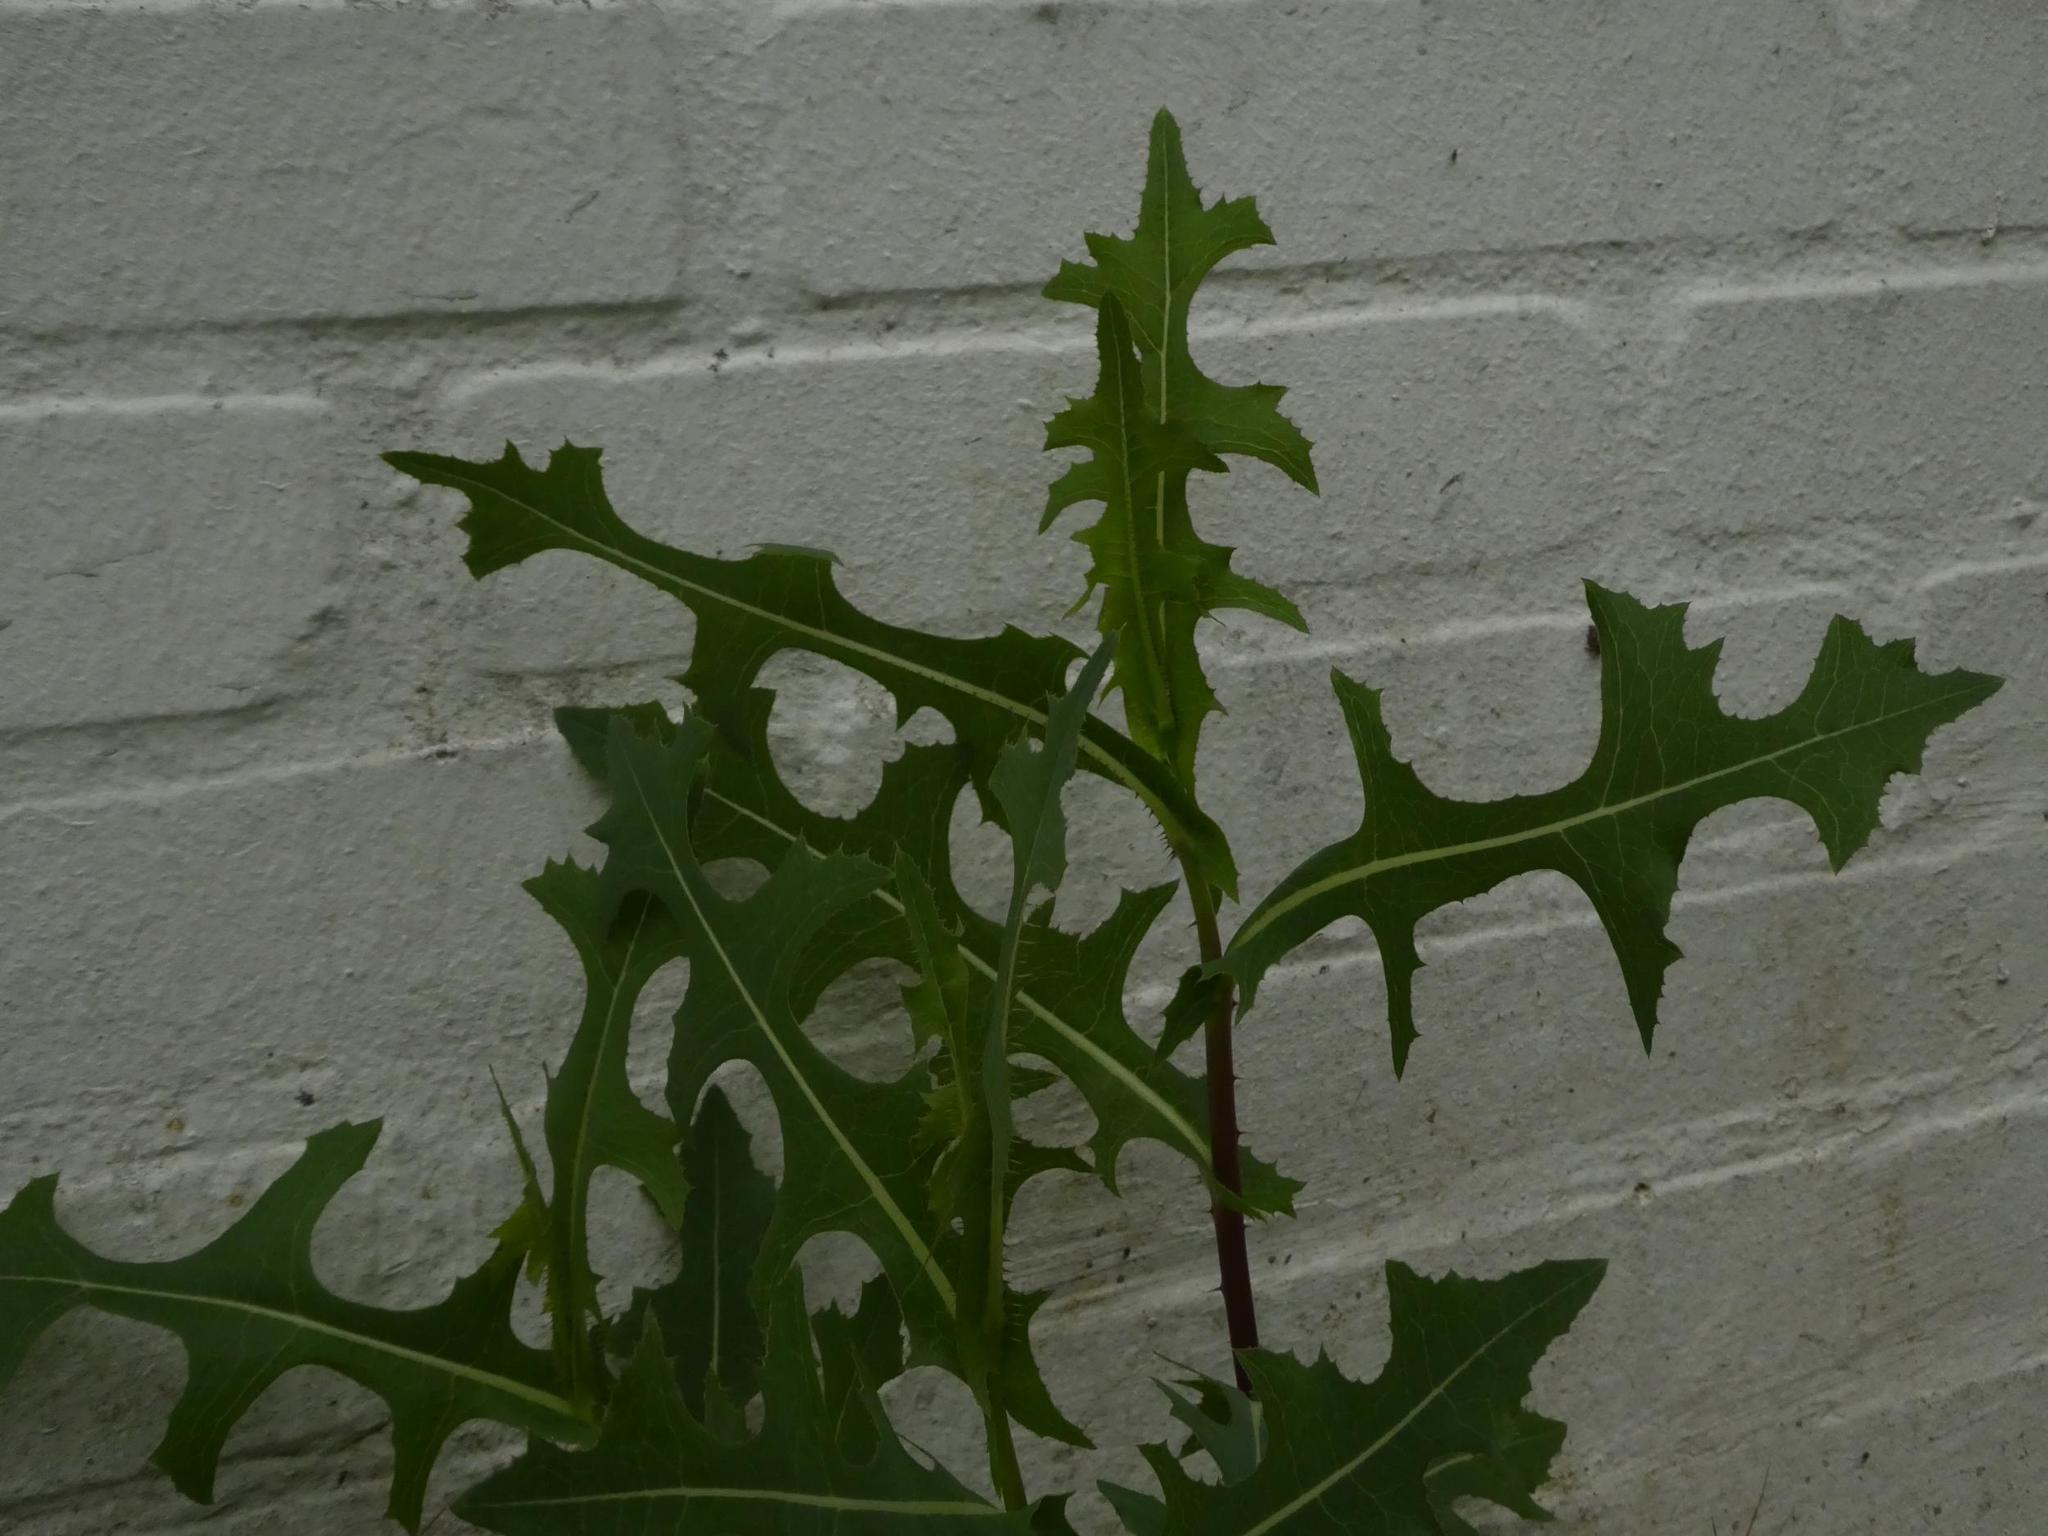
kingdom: Plantae
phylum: Tracheophyta
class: Magnoliopsida
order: Asterales
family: Asteraceae
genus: Lactuca
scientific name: Lactuca serriola
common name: Prickly lettuce
